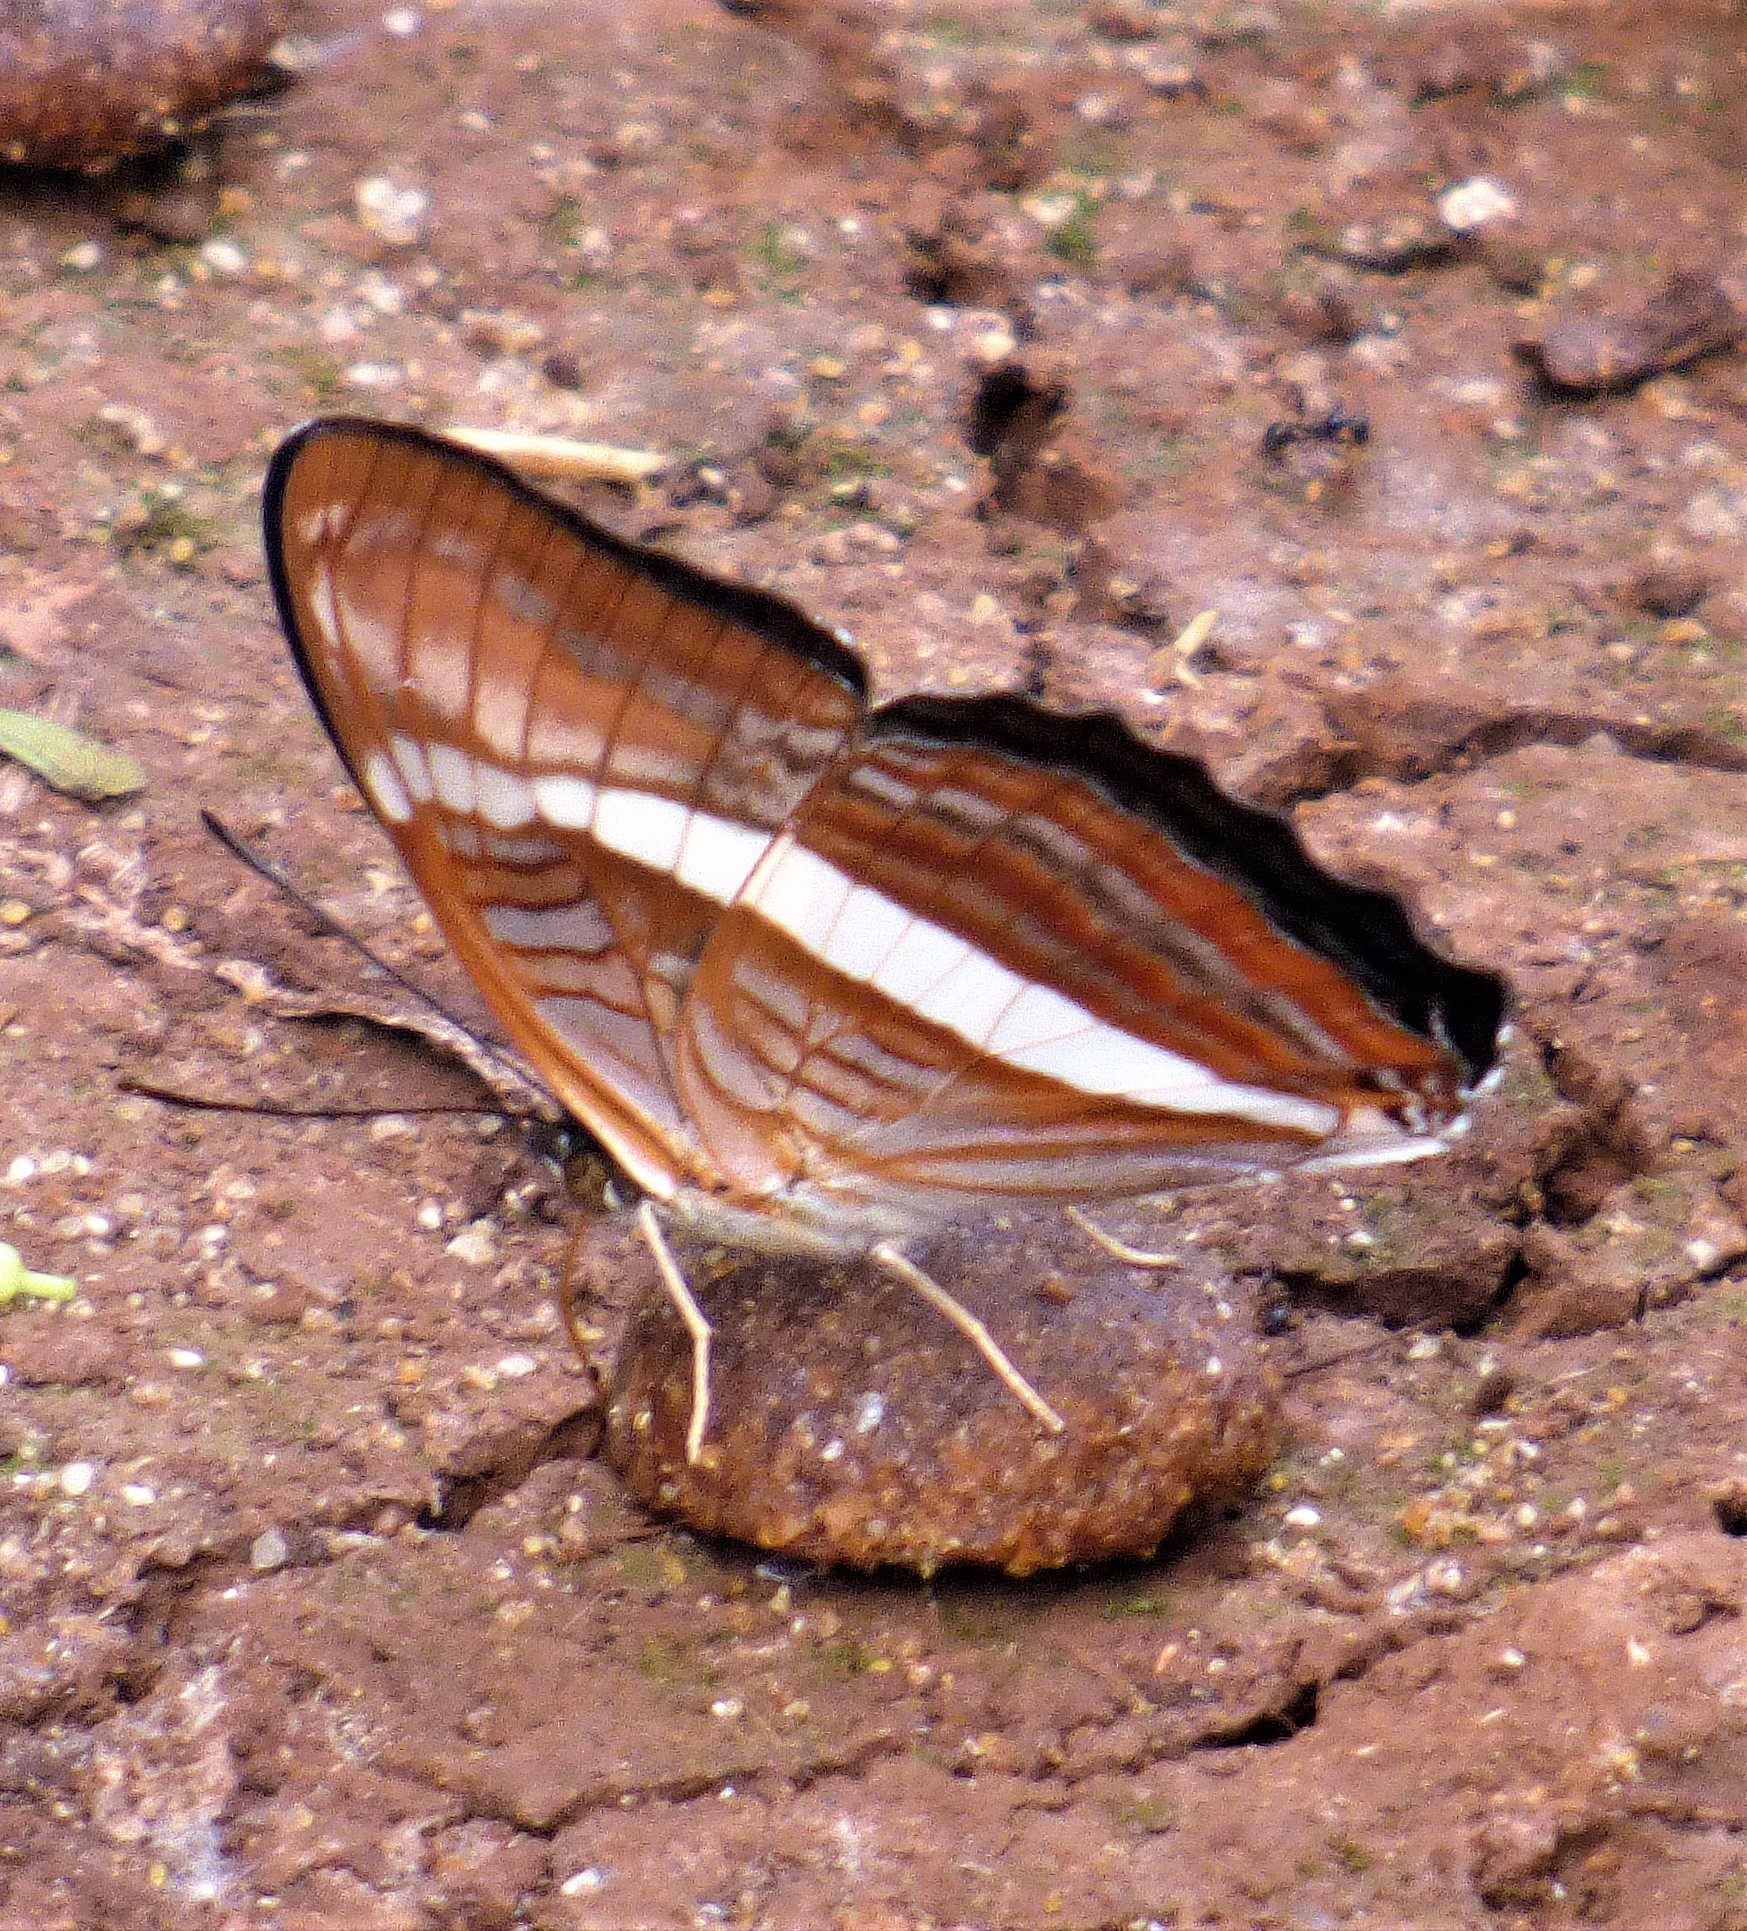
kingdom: Animalia
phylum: Arthropoda
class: Insecta
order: Lepidoptera
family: Nymphalidae
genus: Limenitis
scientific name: Limenitis calliphane
